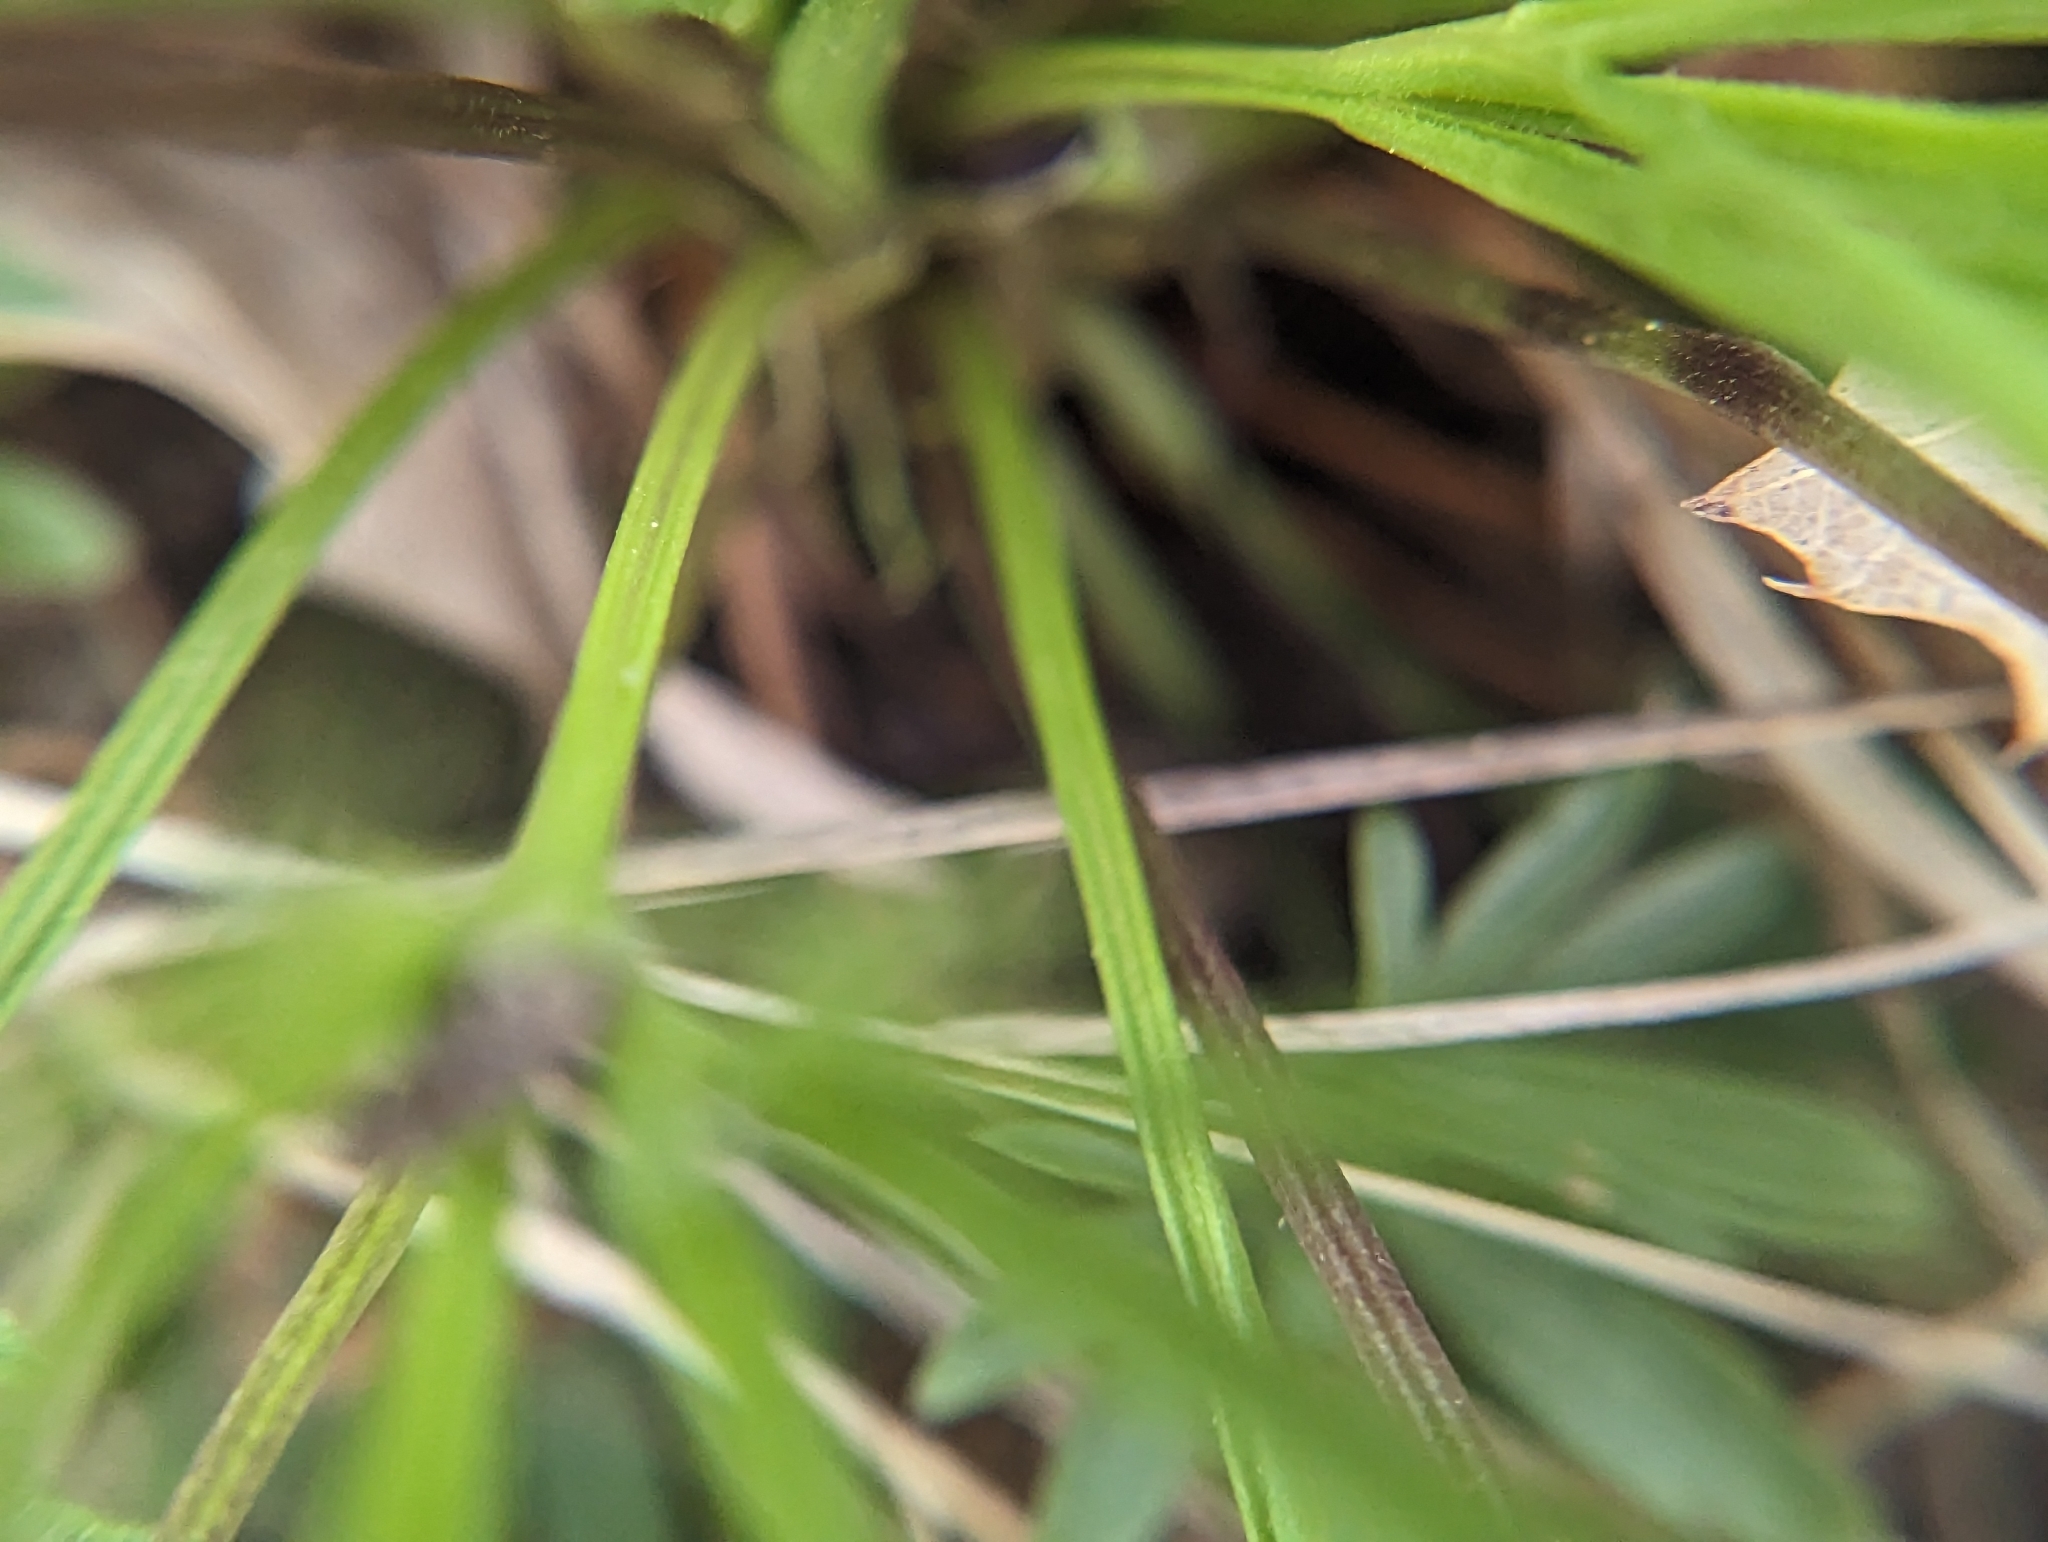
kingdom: Plantae
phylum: Tracheophyta
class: Magnoliopsida
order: Malpighiales
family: Violaceae
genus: Viola
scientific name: Viola pedata
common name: Pansy violet
